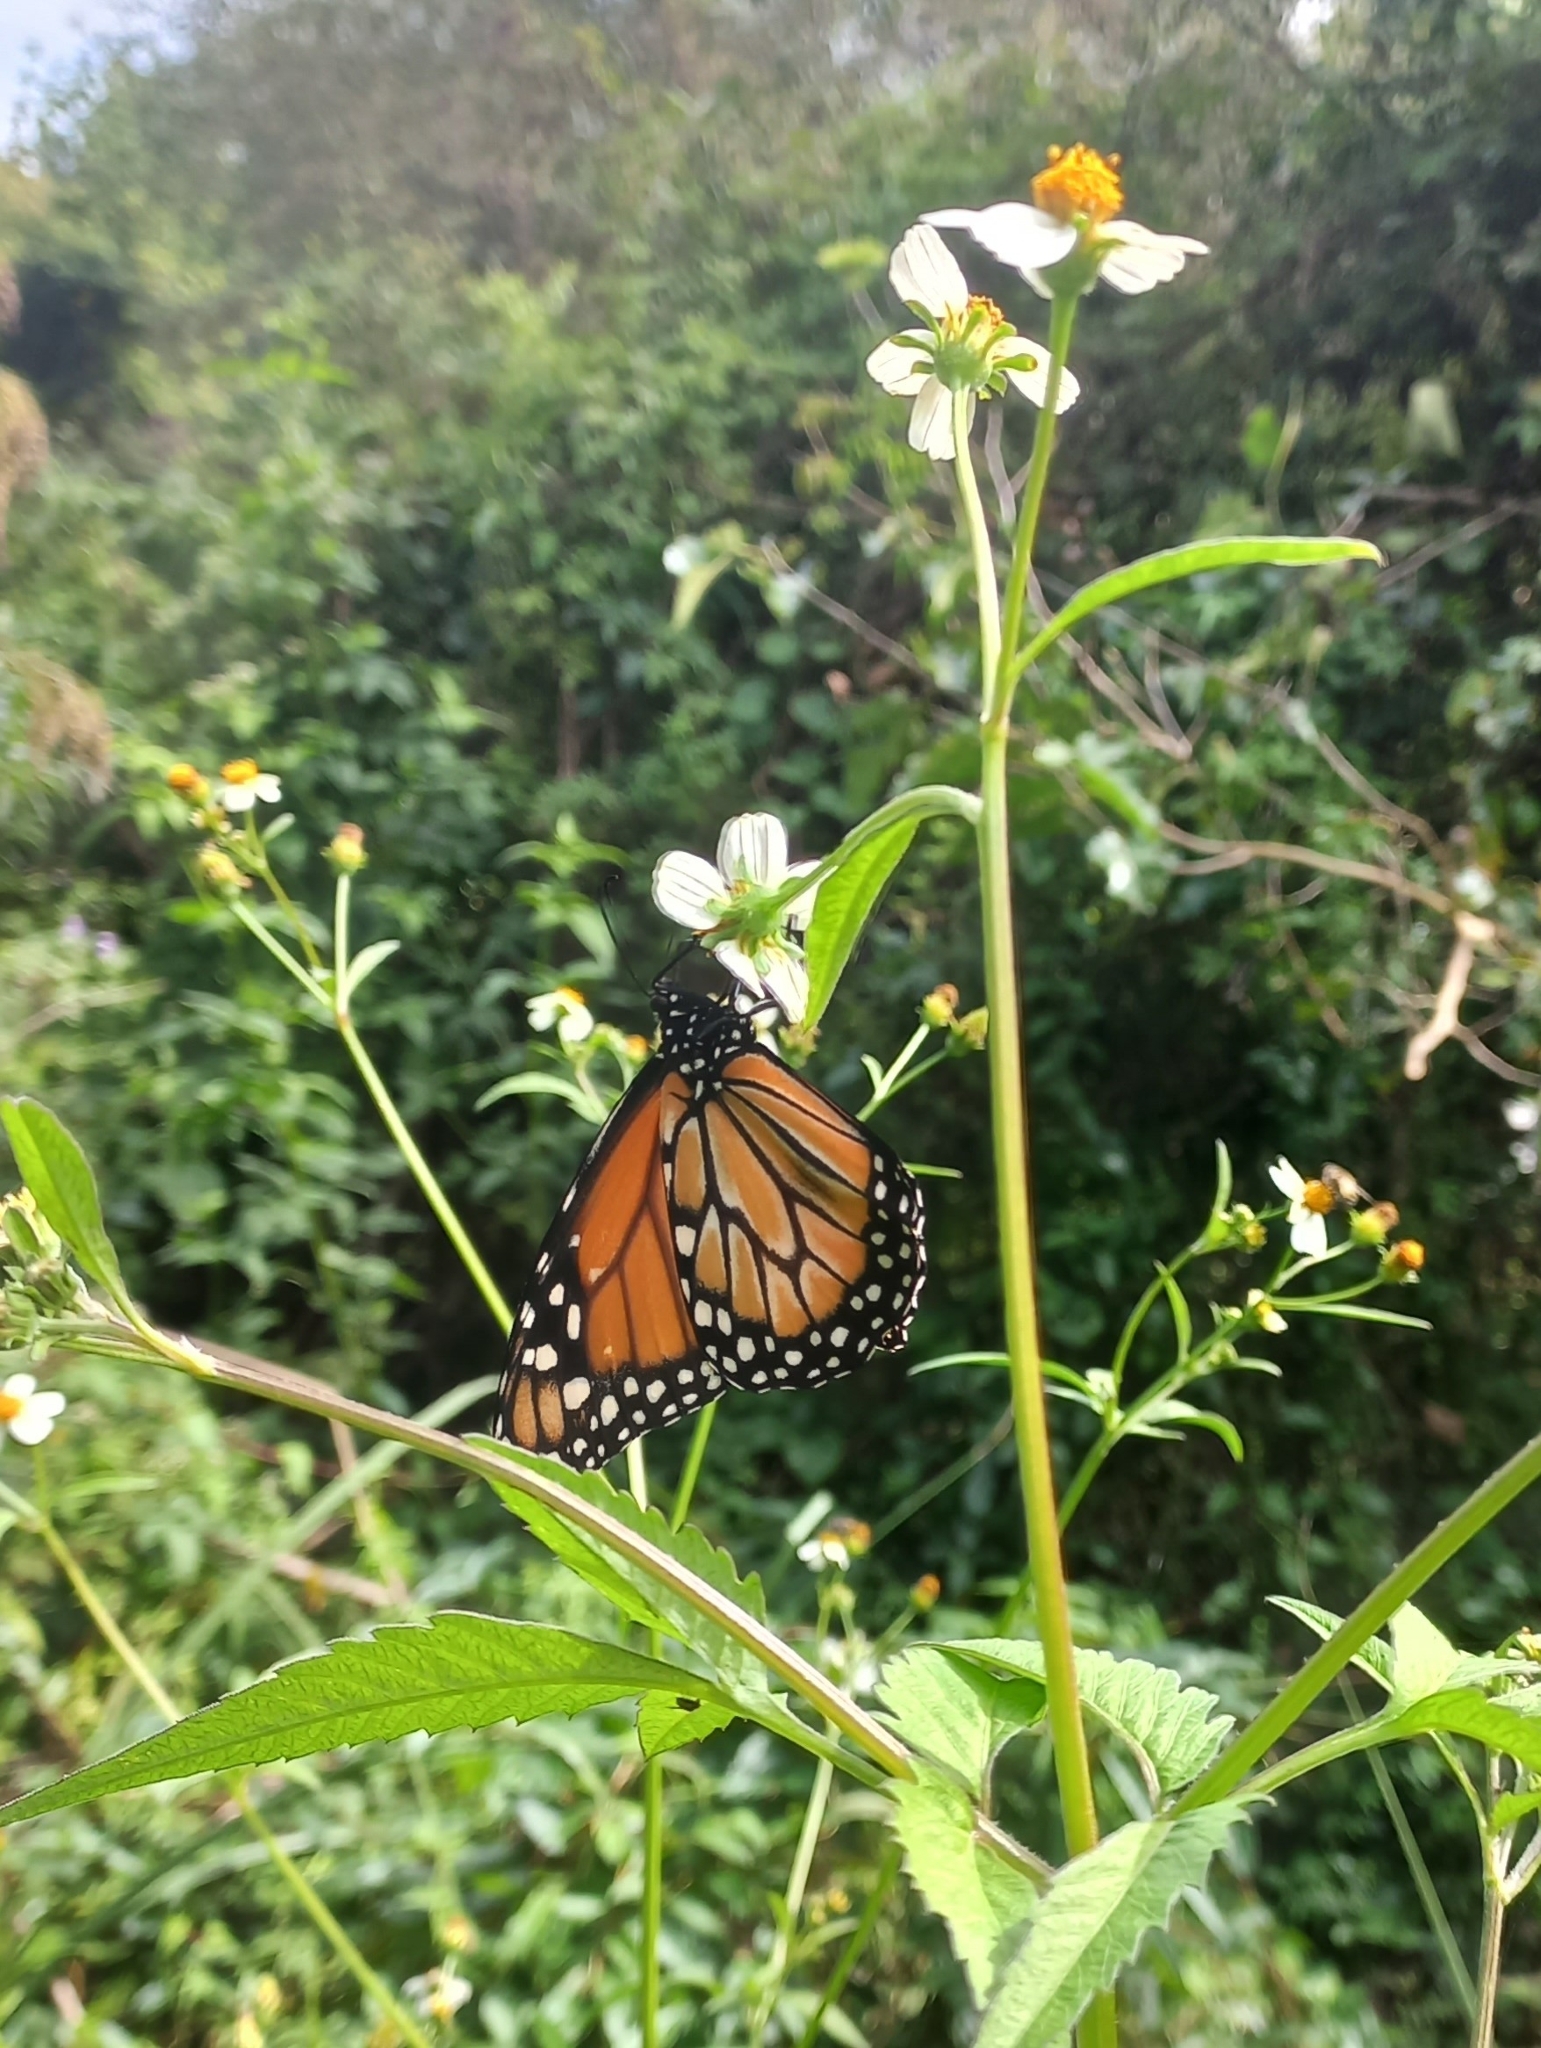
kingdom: Animalia
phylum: Arthropoda
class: Insecta
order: Lepidoptera
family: Nymphalidae
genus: Danaus
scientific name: Danaus erippus
